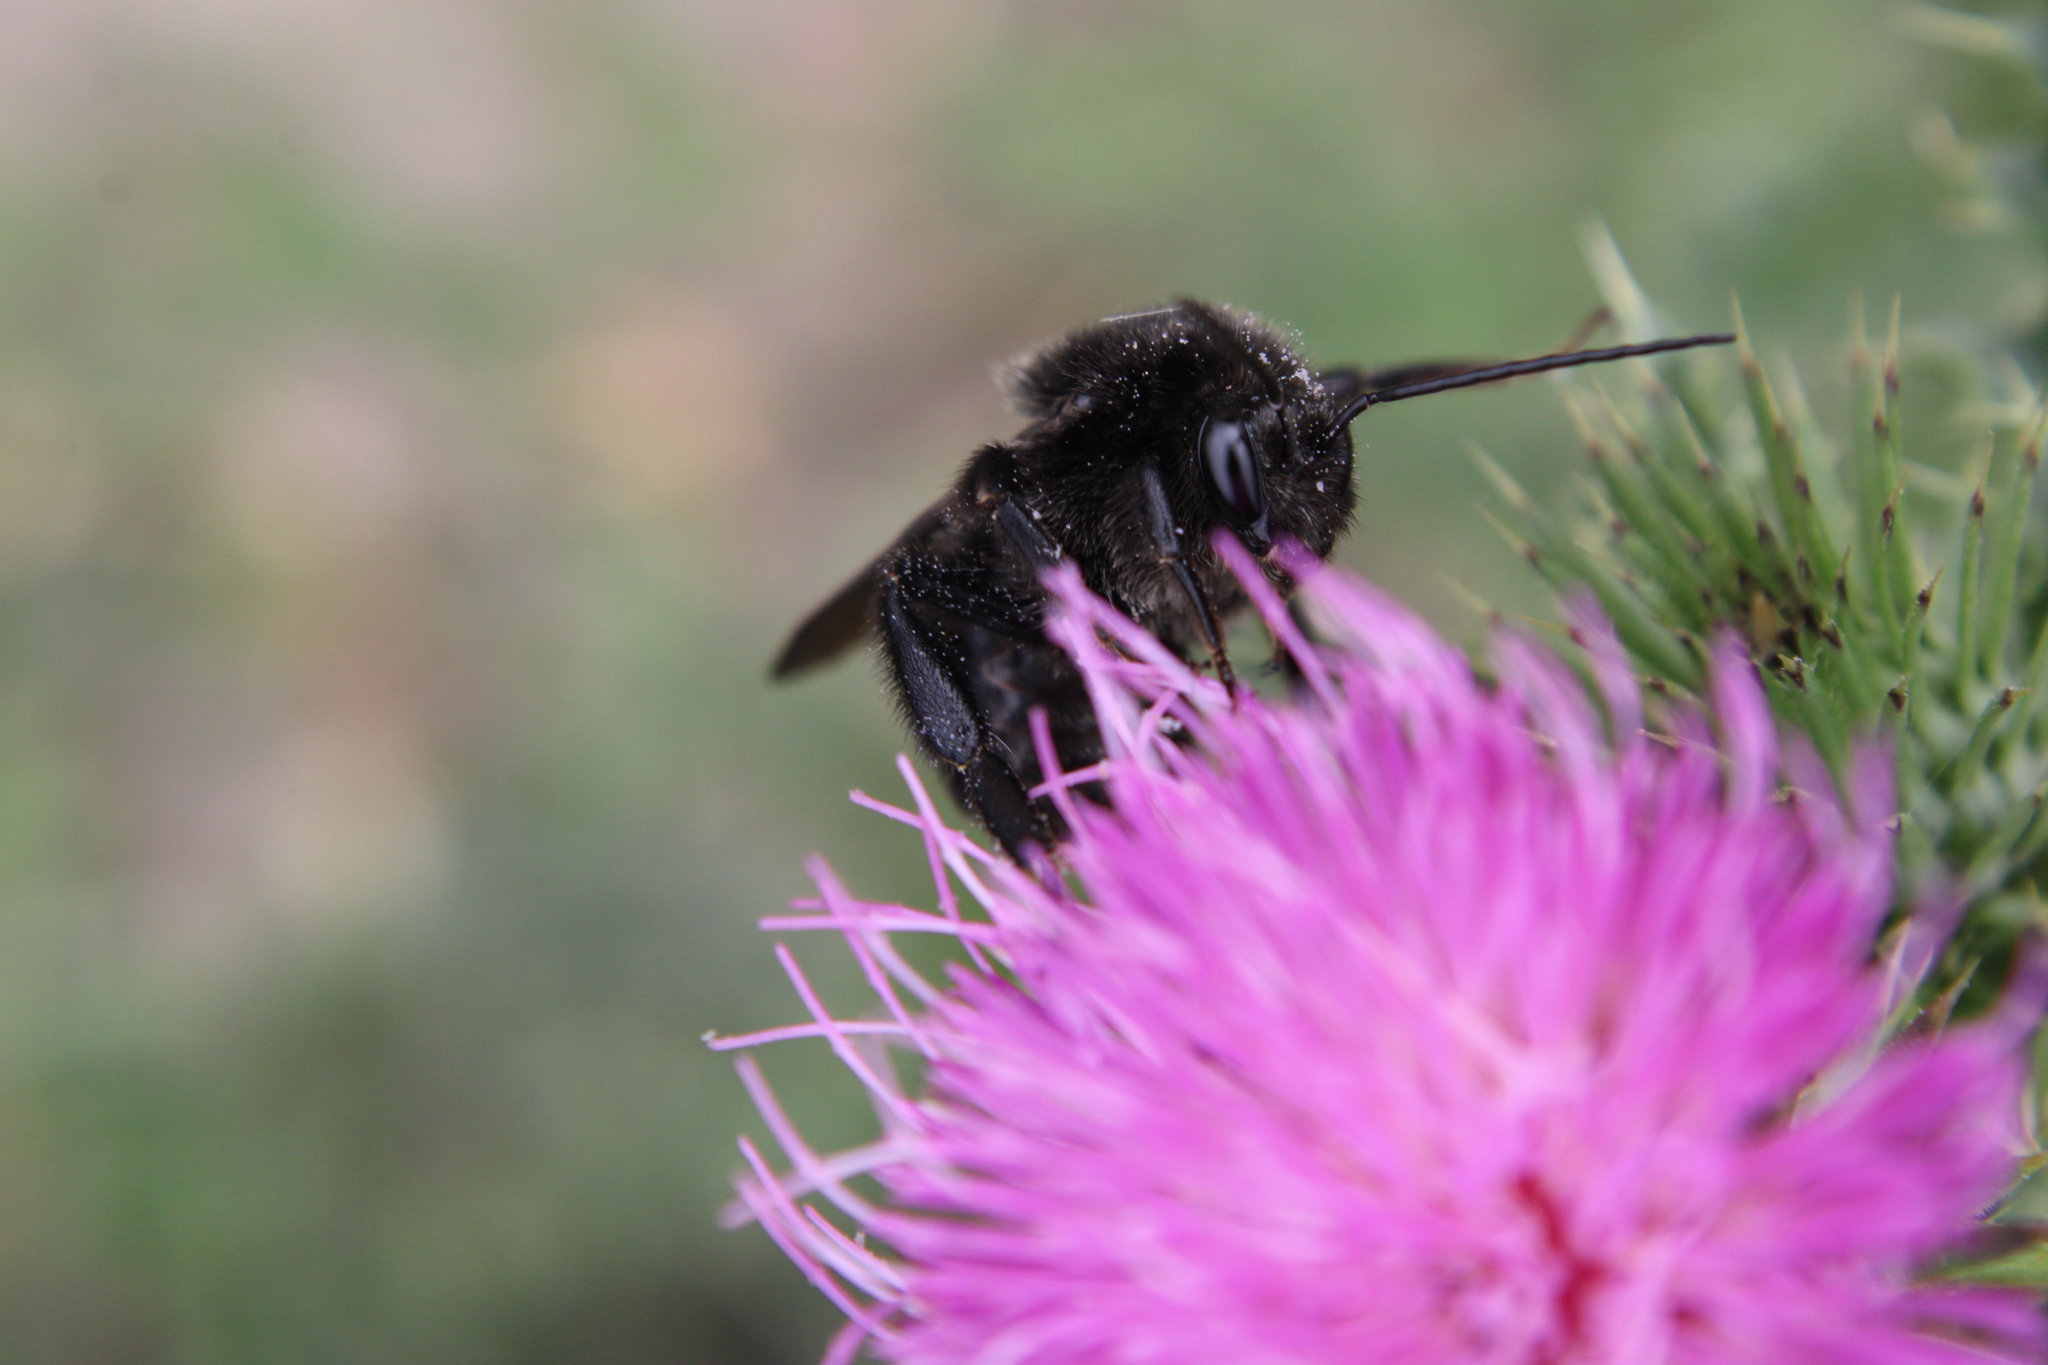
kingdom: Animalia
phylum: Arthropoda
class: Insecta
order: Hymenoptera
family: Apidae
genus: Bombus
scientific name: Bombus pauloensis
